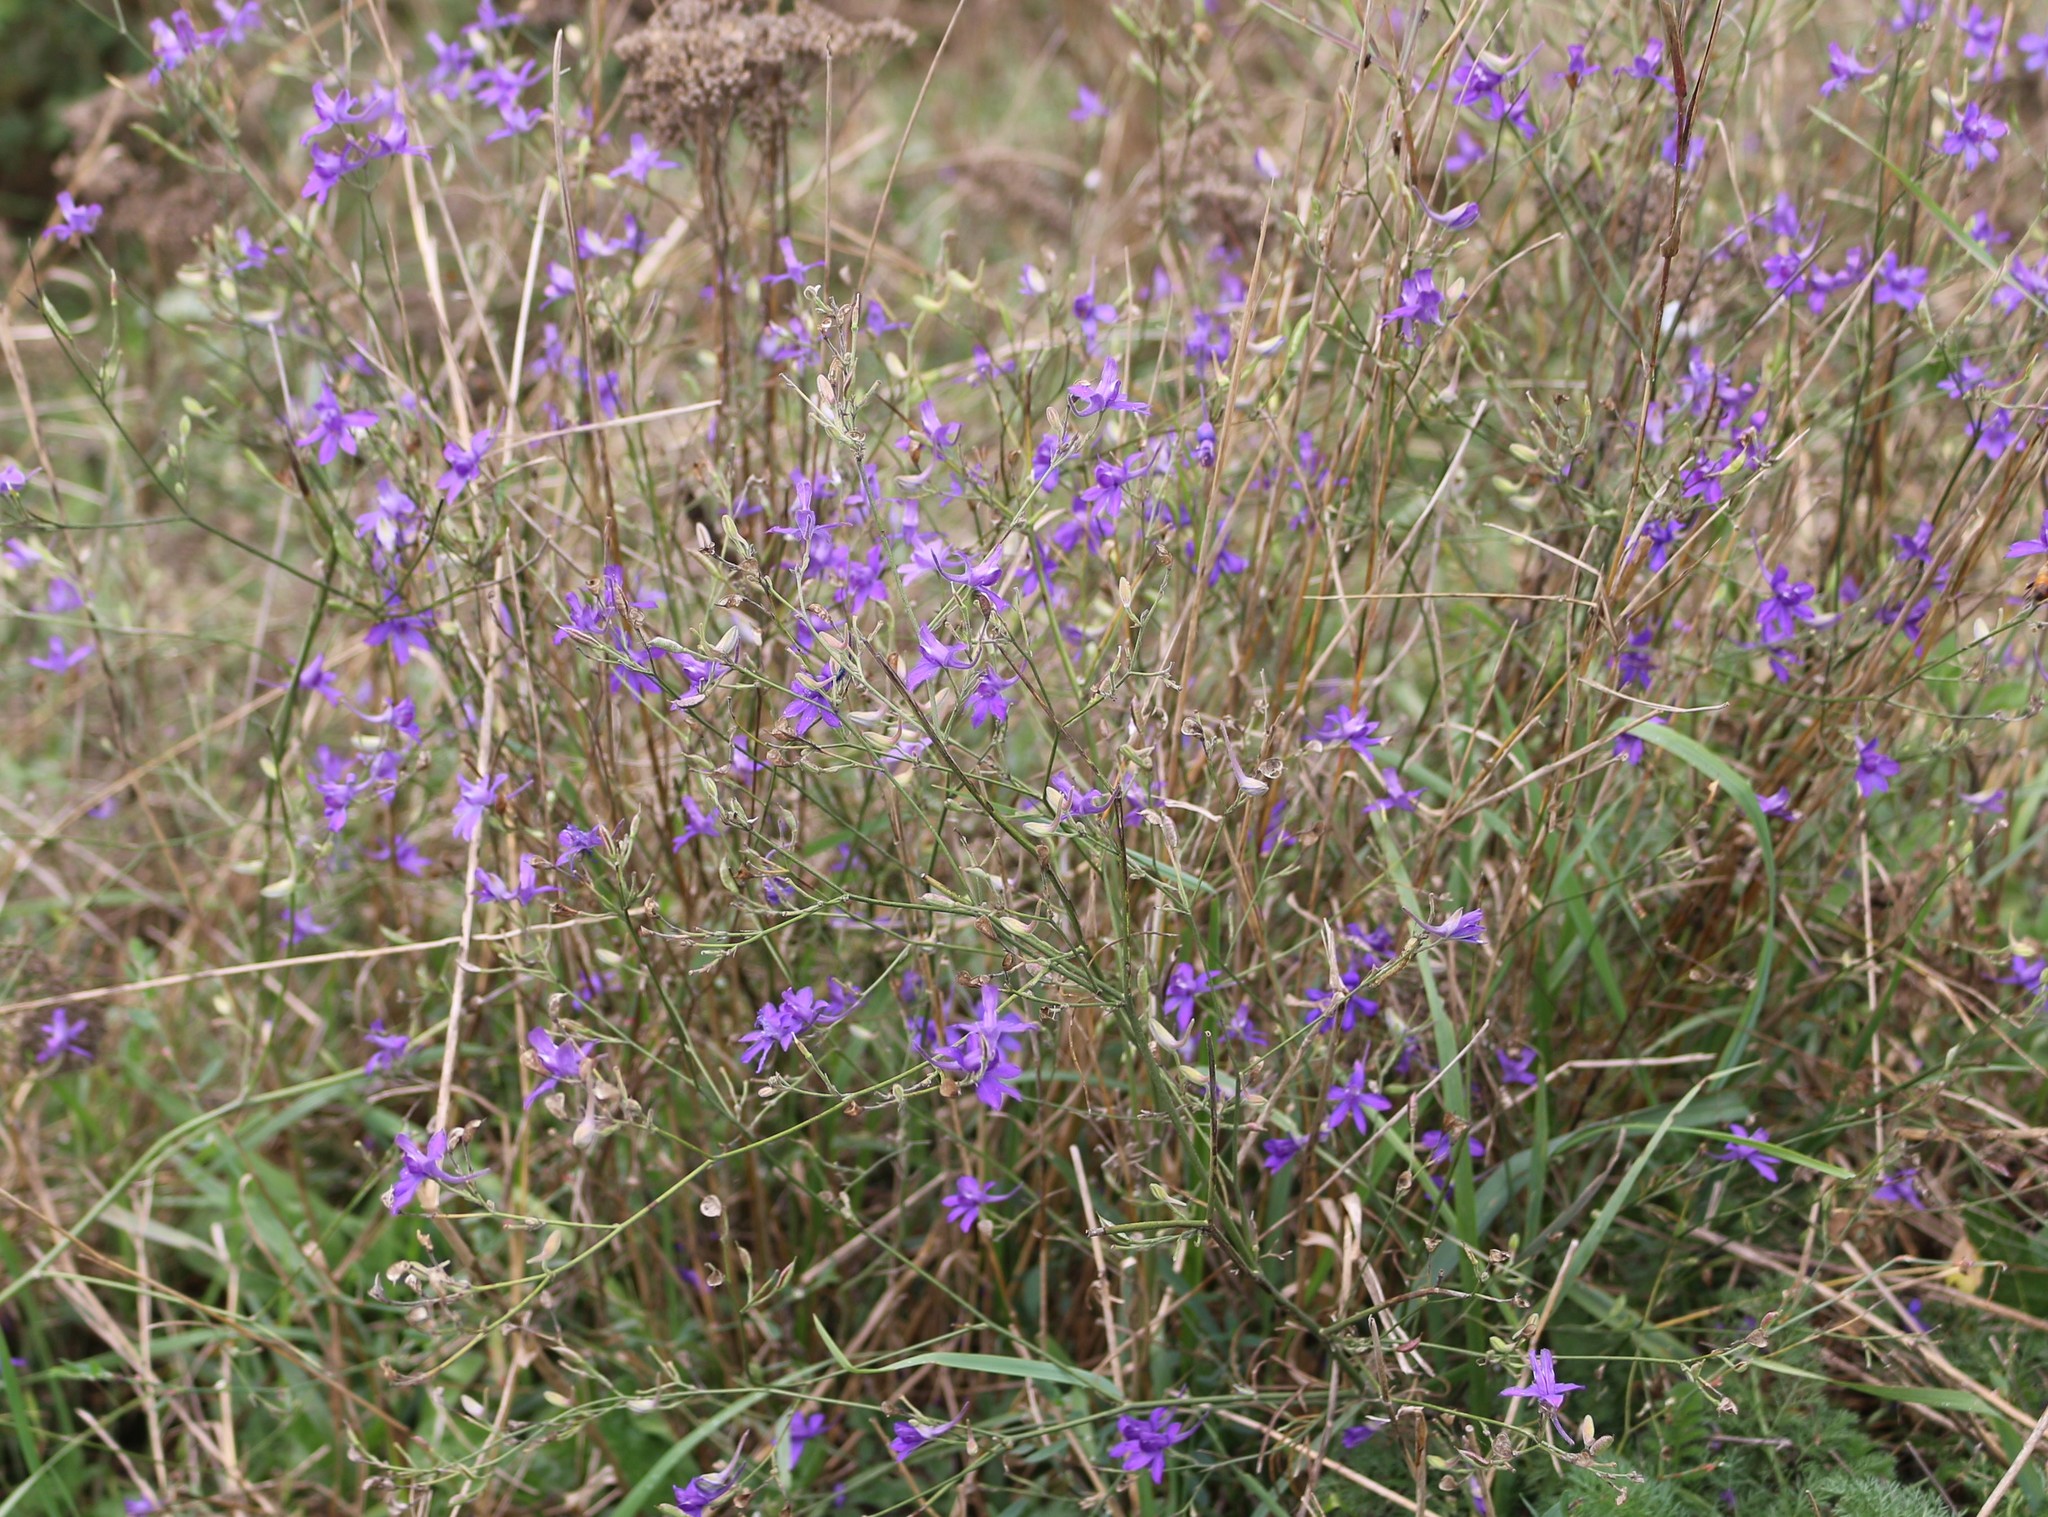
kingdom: Plantae
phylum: Tracheophyta
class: Magnoliopsida
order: Ranunculales
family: Ranunculaceae
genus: Delphinium
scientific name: Delphinium consolida
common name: Branching larkspur
